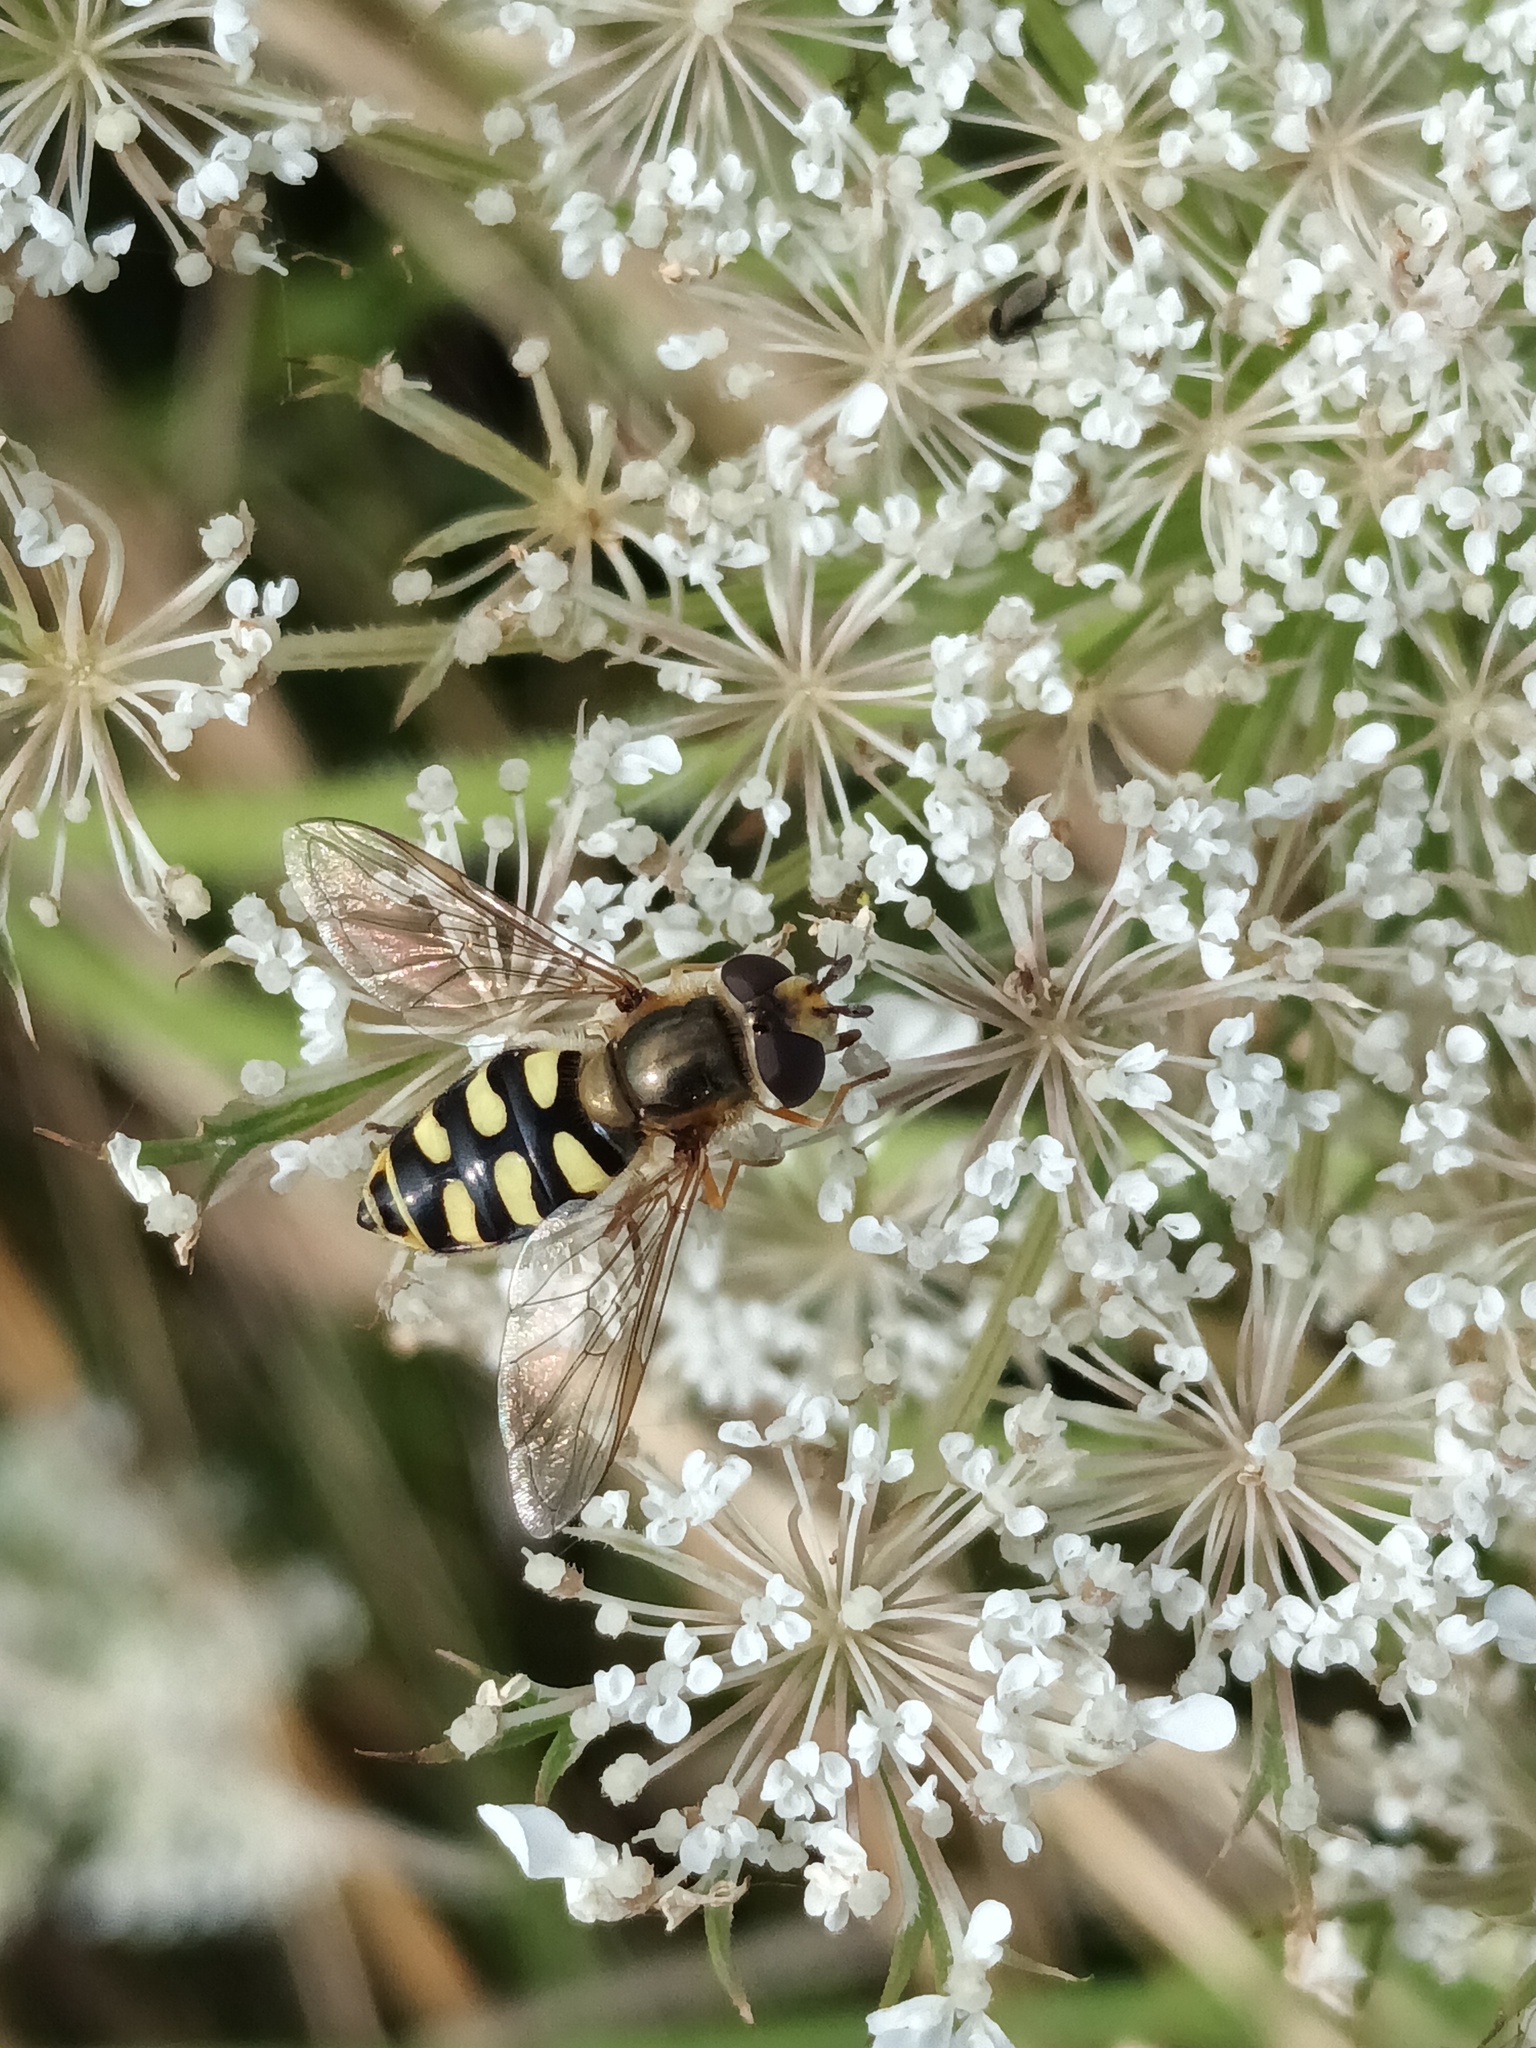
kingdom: Animalia
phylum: Arthropoda
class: Insecta
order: Diptera
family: Syrphidae
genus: Eupeodes
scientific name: Eupeodes corollae
